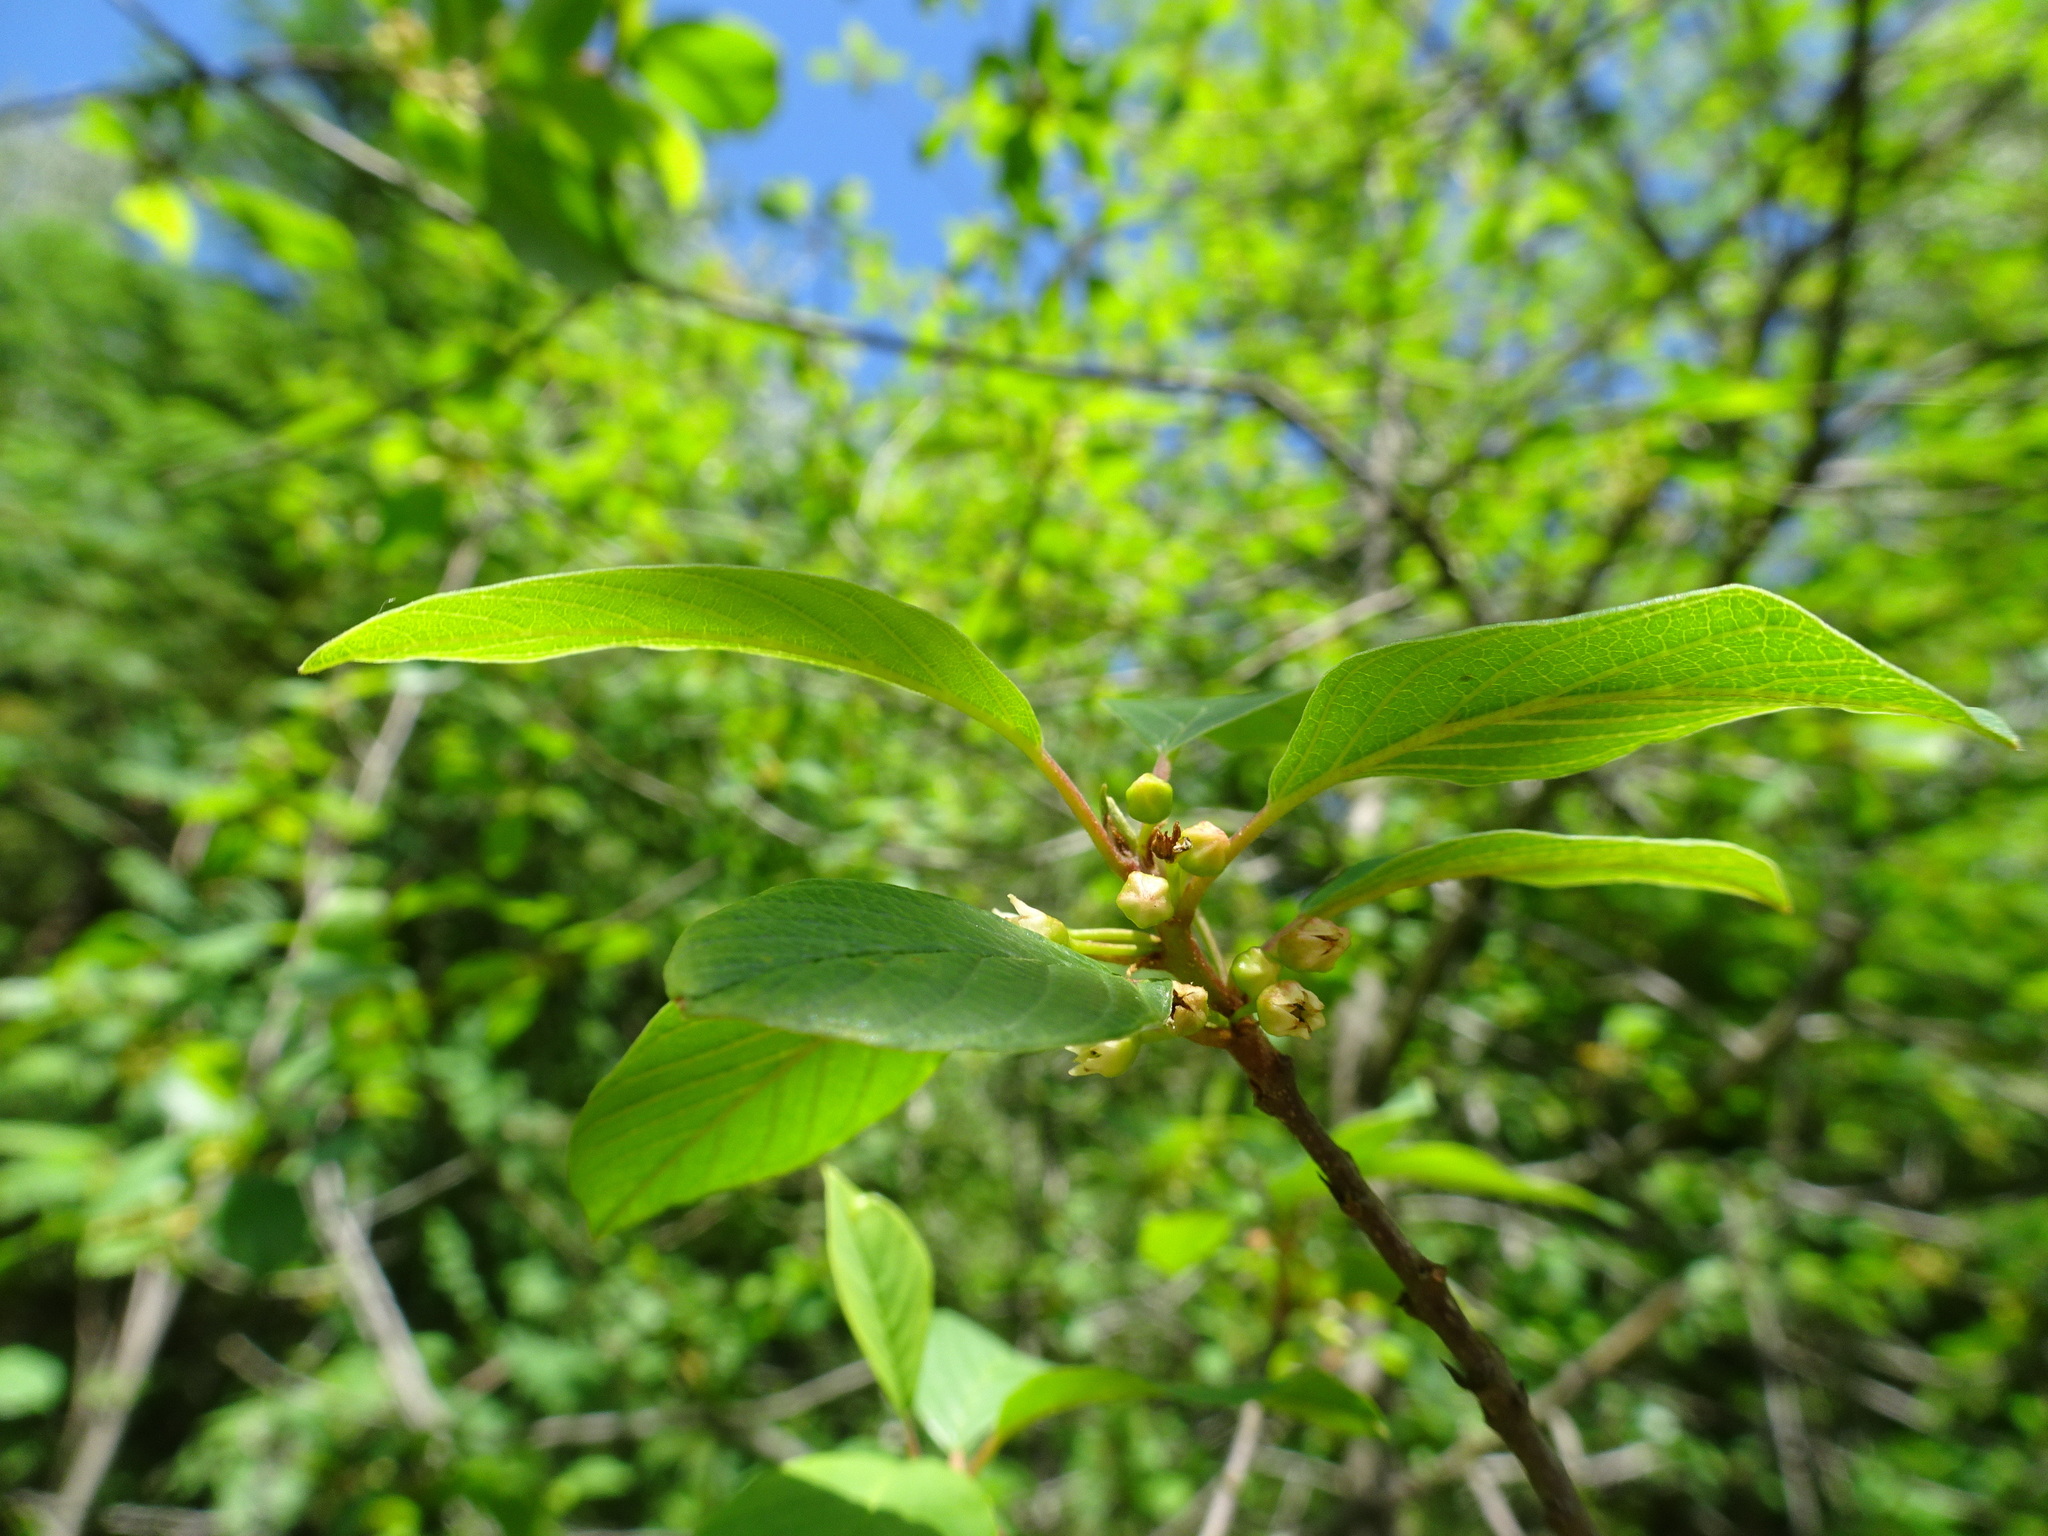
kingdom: Plantae
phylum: Tracheophyta
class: Magnoliopsida
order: Rosales
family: Rhamnaceae
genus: Frangula
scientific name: Frangula alnus
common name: Alder buckthorn
